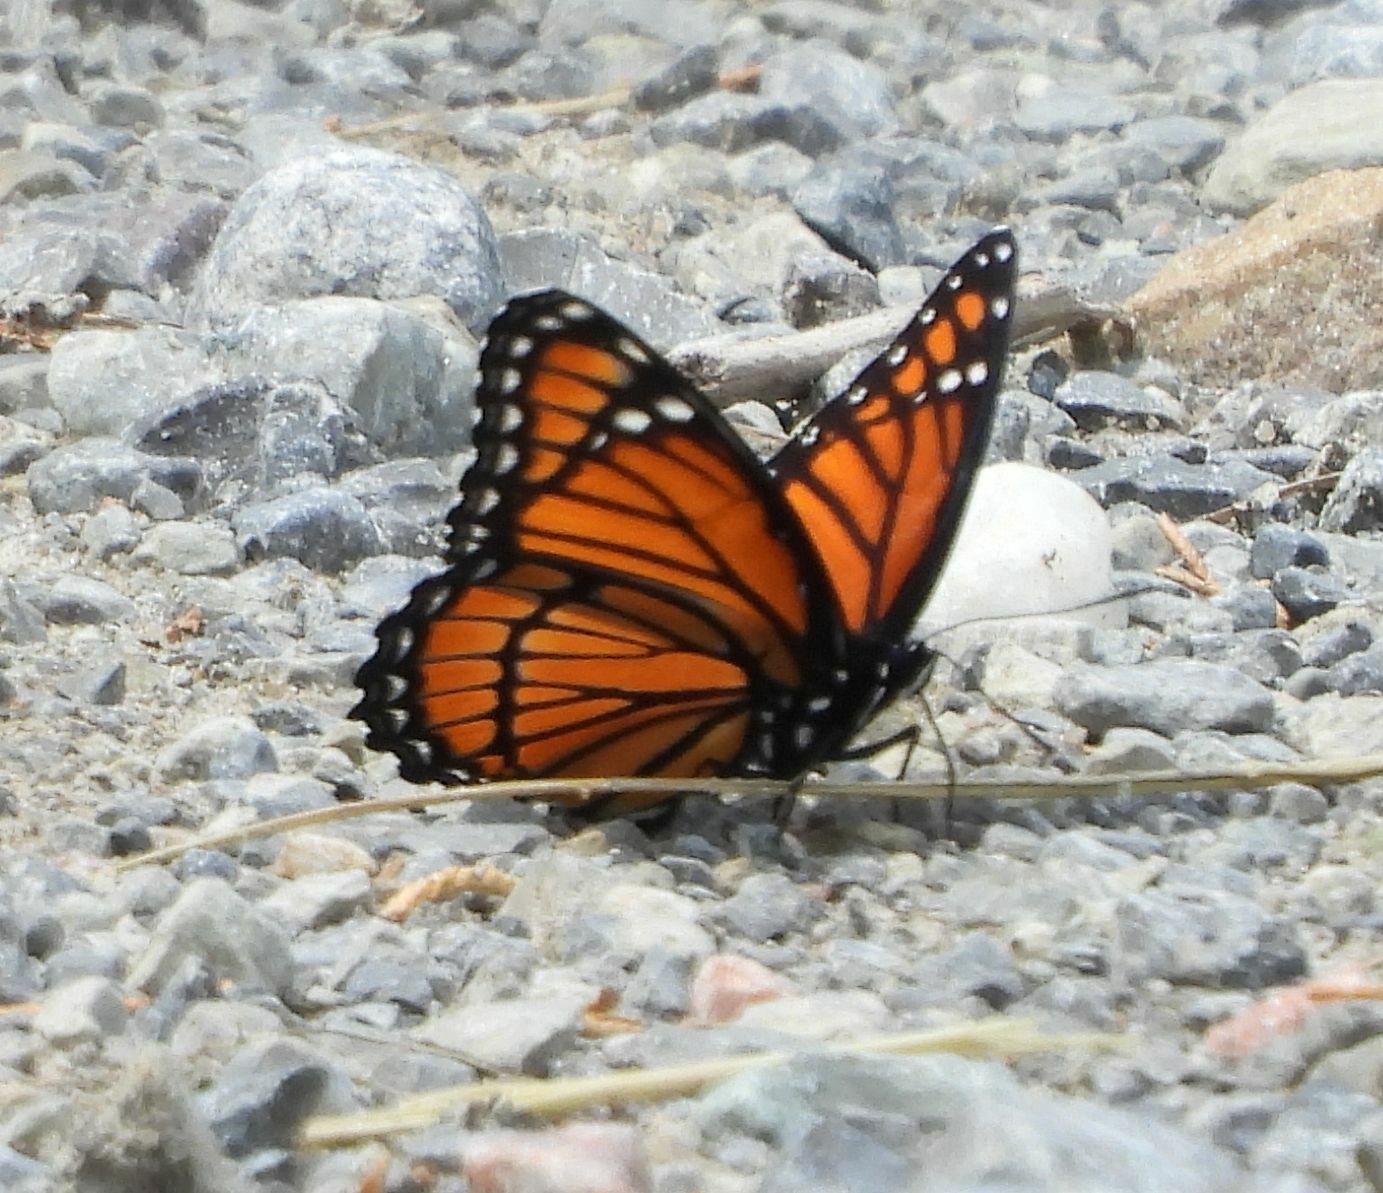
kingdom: Animalia
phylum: Arthropoda
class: Insecta
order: Lepidoptera
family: Nymphalidae
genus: Limenitis
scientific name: Limenitis archippus
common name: Viceroy
